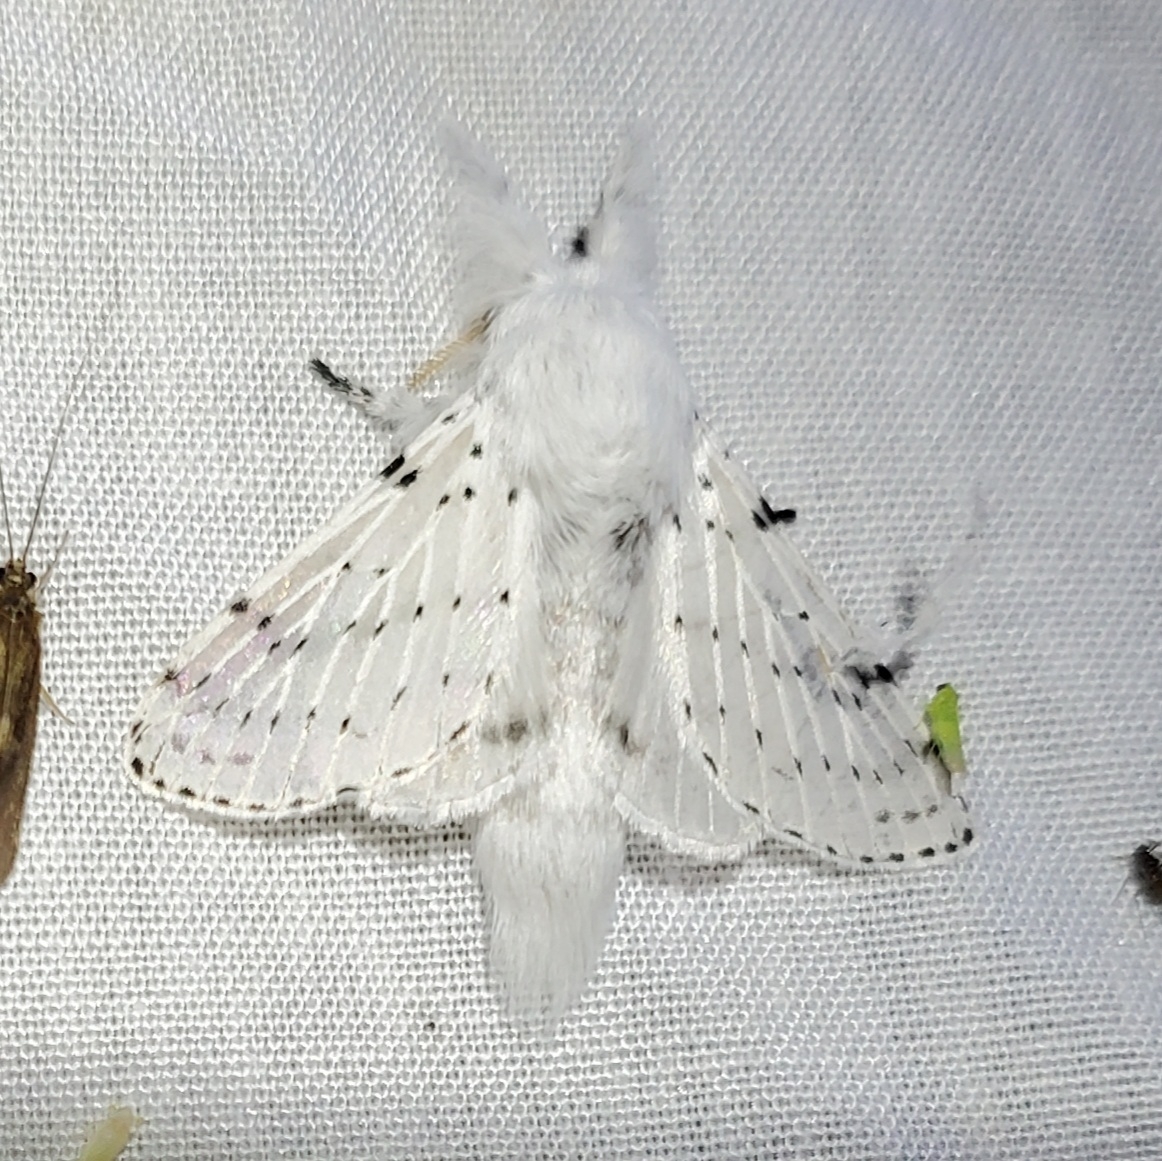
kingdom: Animalia
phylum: Arthropoda
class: Insecta
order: Lepidoptera
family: Lasiocampidae
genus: Artace
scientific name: Artace cribrarius
